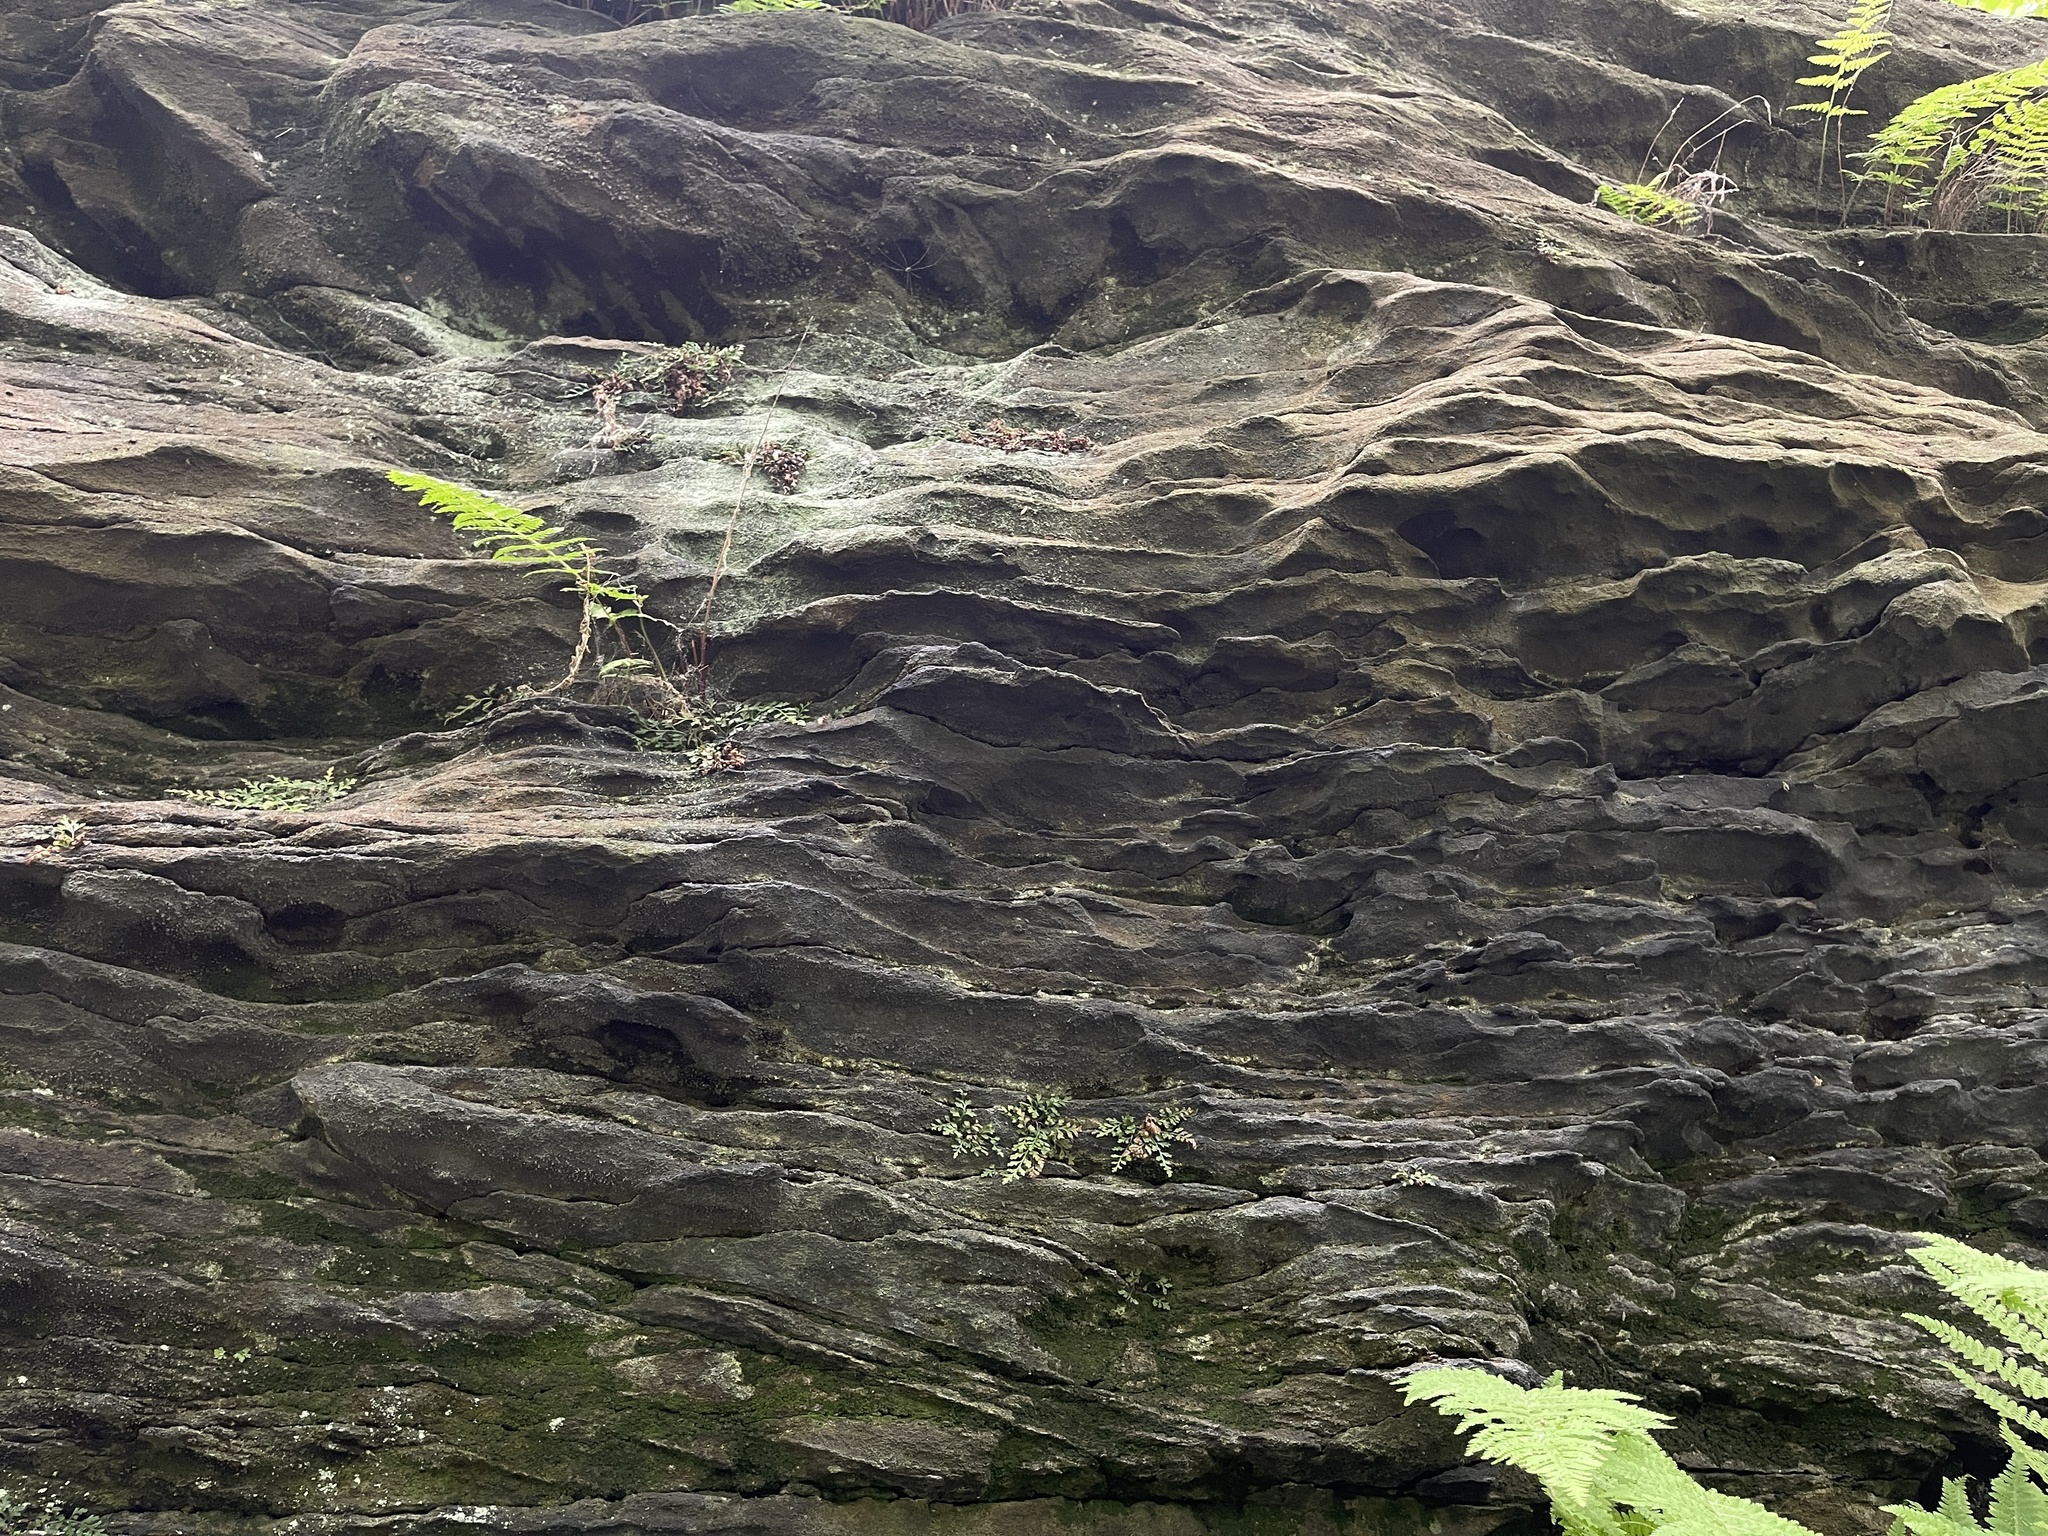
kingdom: Plantae
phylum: Tracheophyta
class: Polypodiopsida
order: Polypodiales
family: Aspleniaceae
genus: Asplenium
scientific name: Asplenium montanum
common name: Mountain spleenwort
